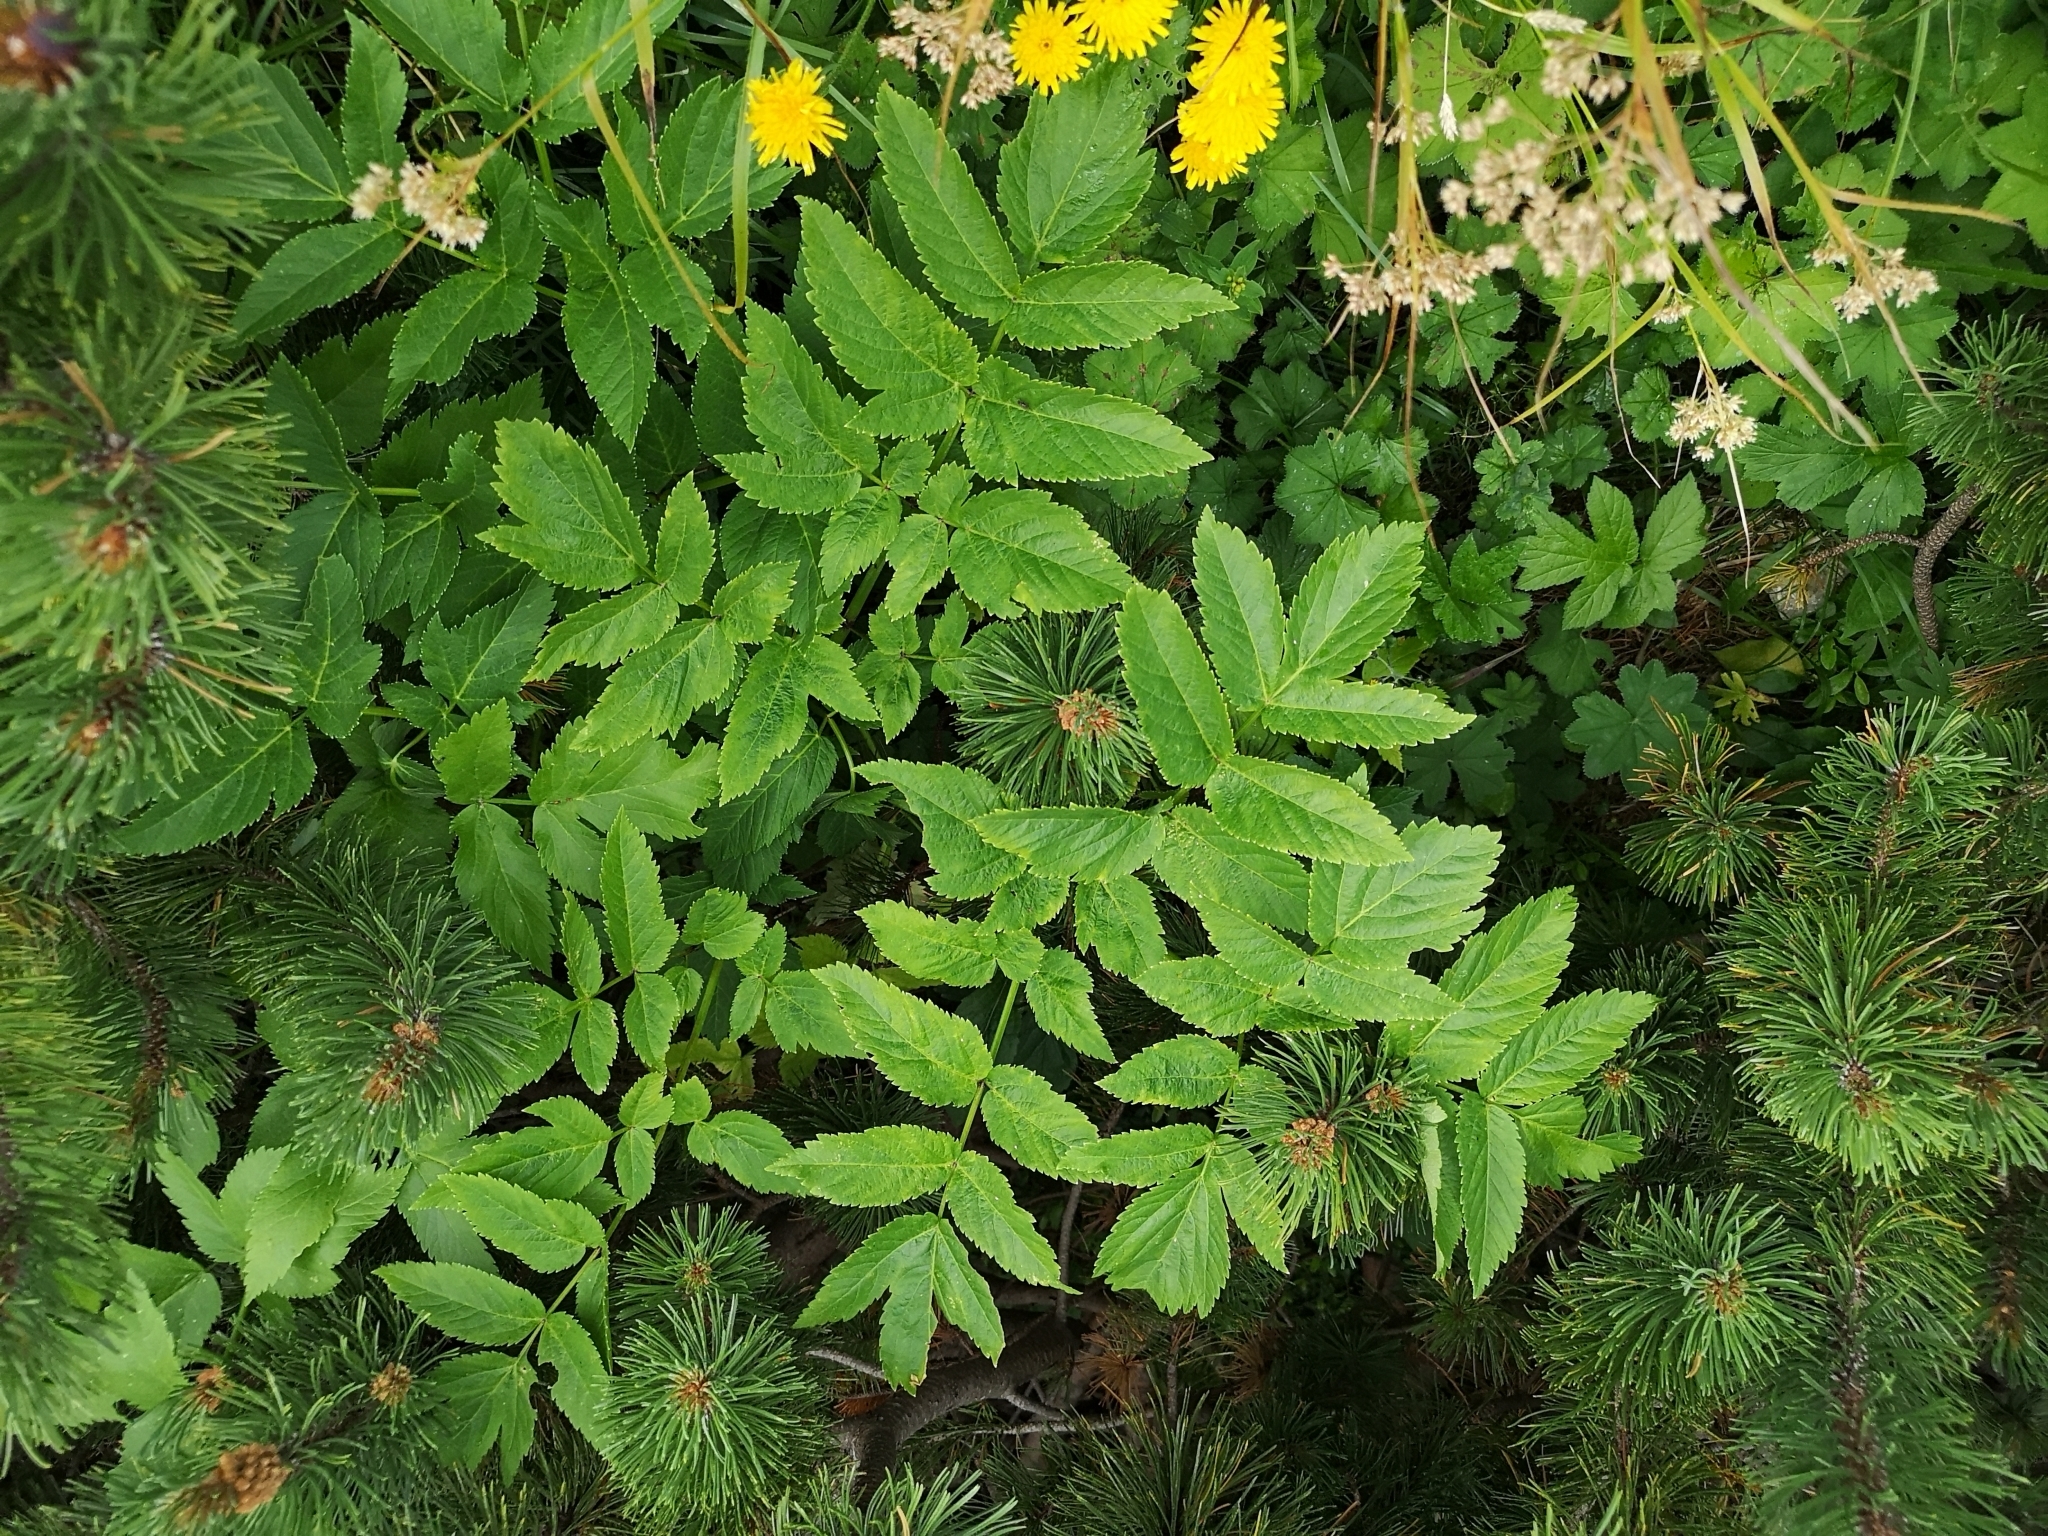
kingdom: Plantae
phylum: Tracheophyta
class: Magnoliopsida
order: Apiales
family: Apiaceae
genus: Angelica
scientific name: Angelica sylvestris
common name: Wild angelica
